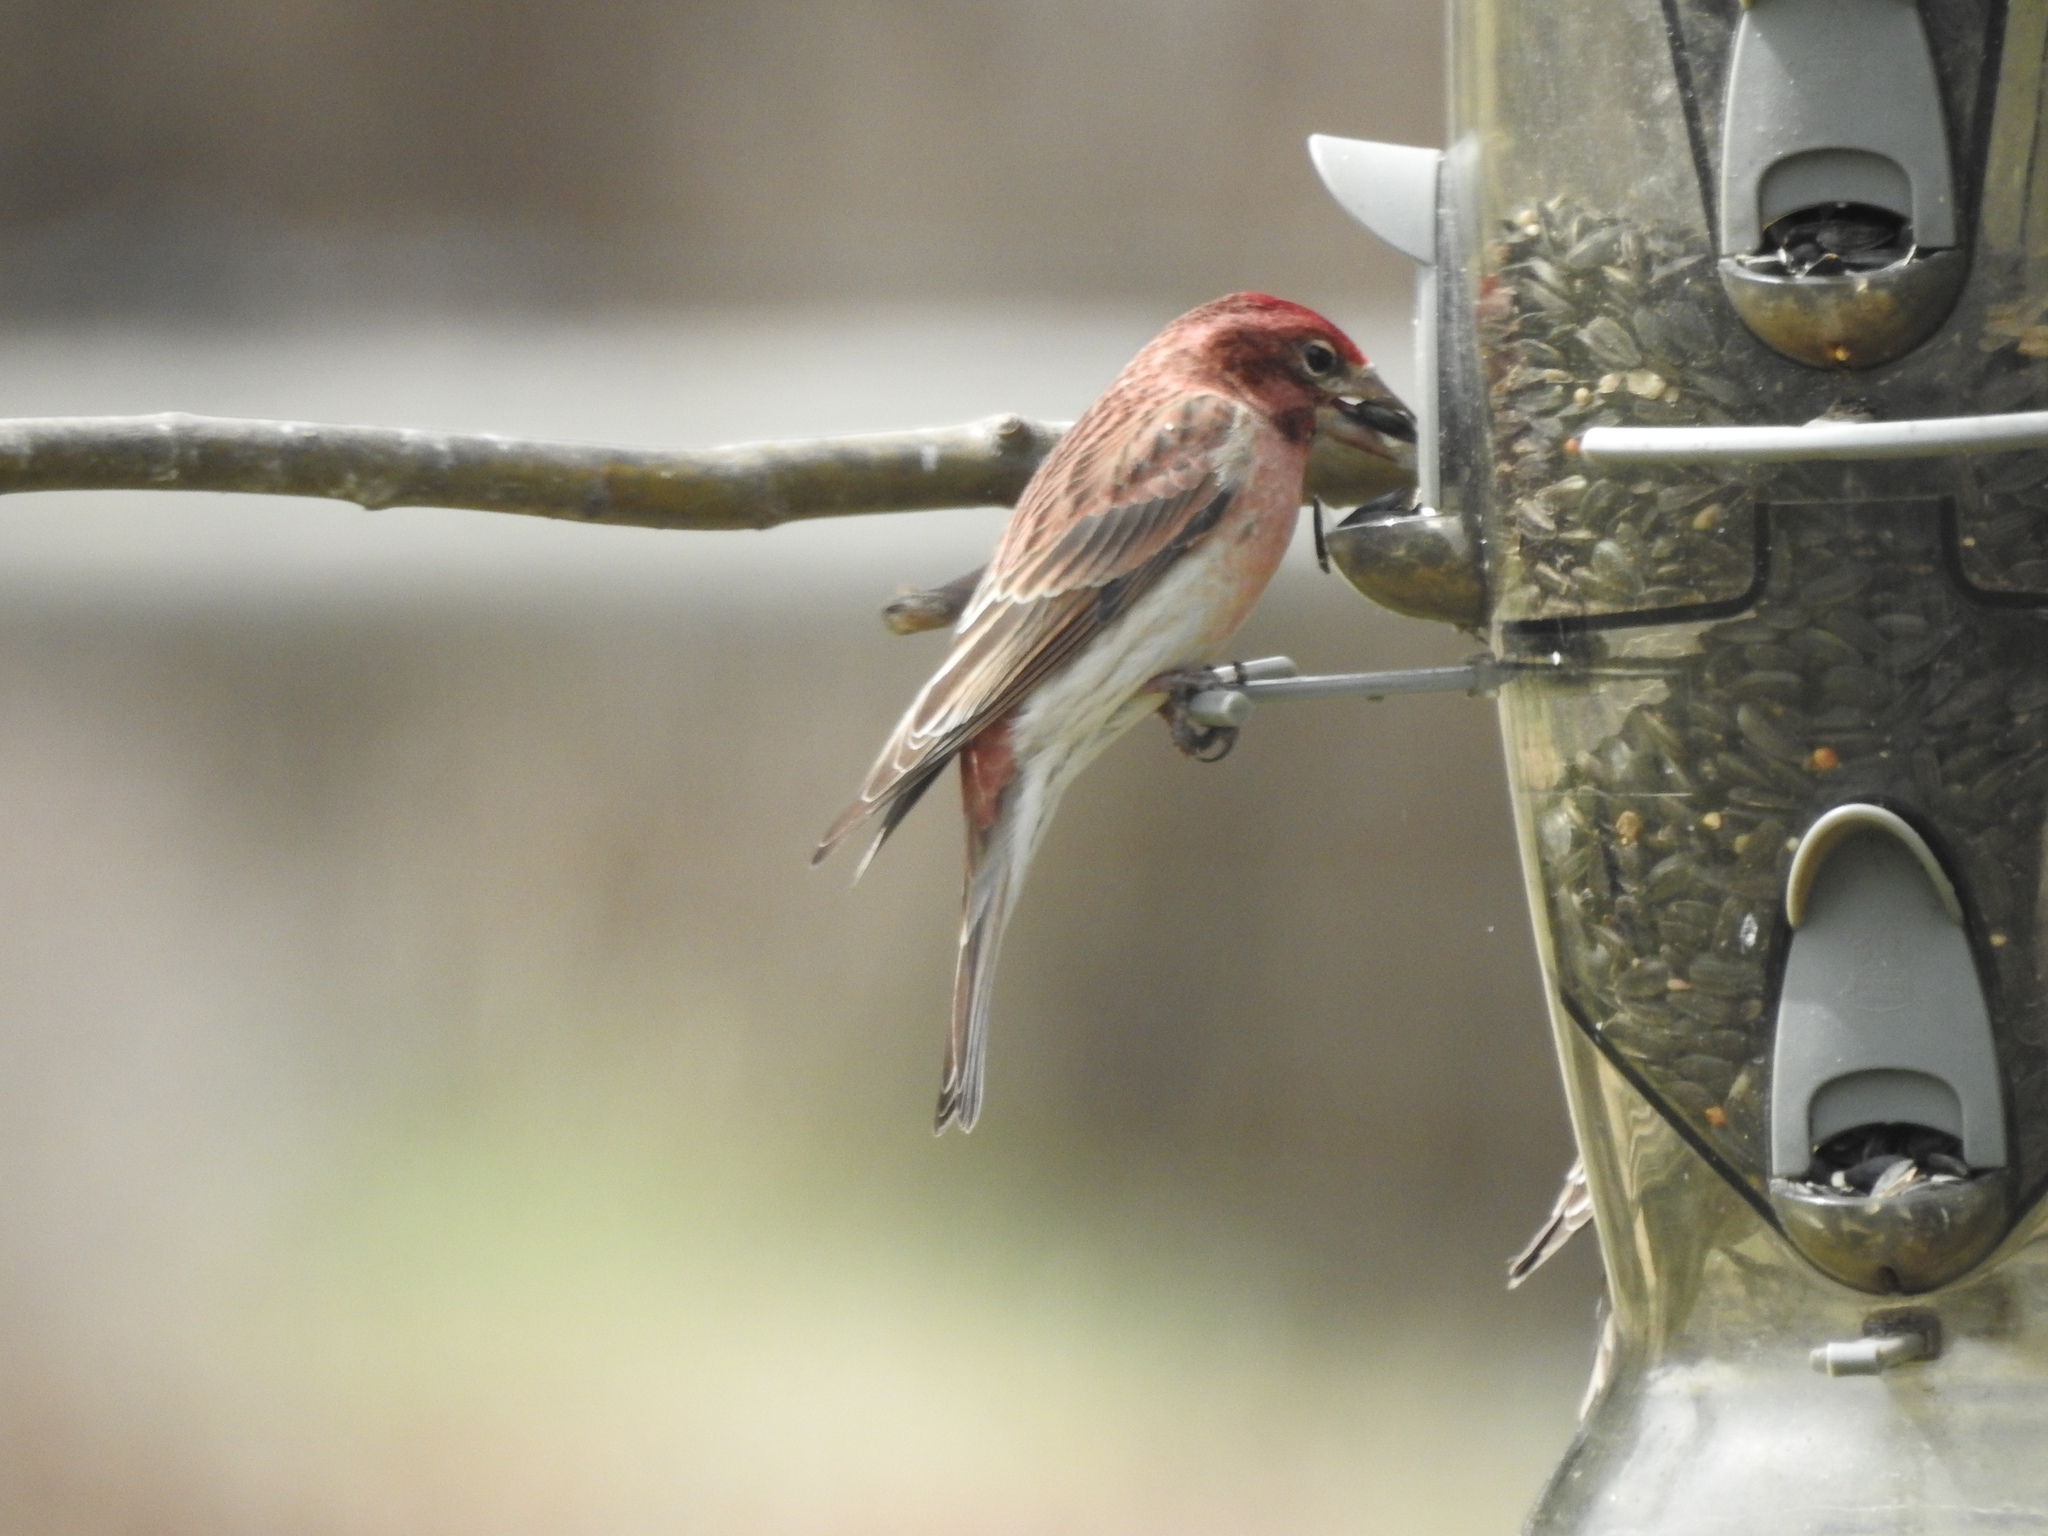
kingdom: Animalia
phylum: Chordata
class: Aves
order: Passeriformes
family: Fringillidae
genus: Haemorhous
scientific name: Haemorhous cassinii
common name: Cassin's finch
